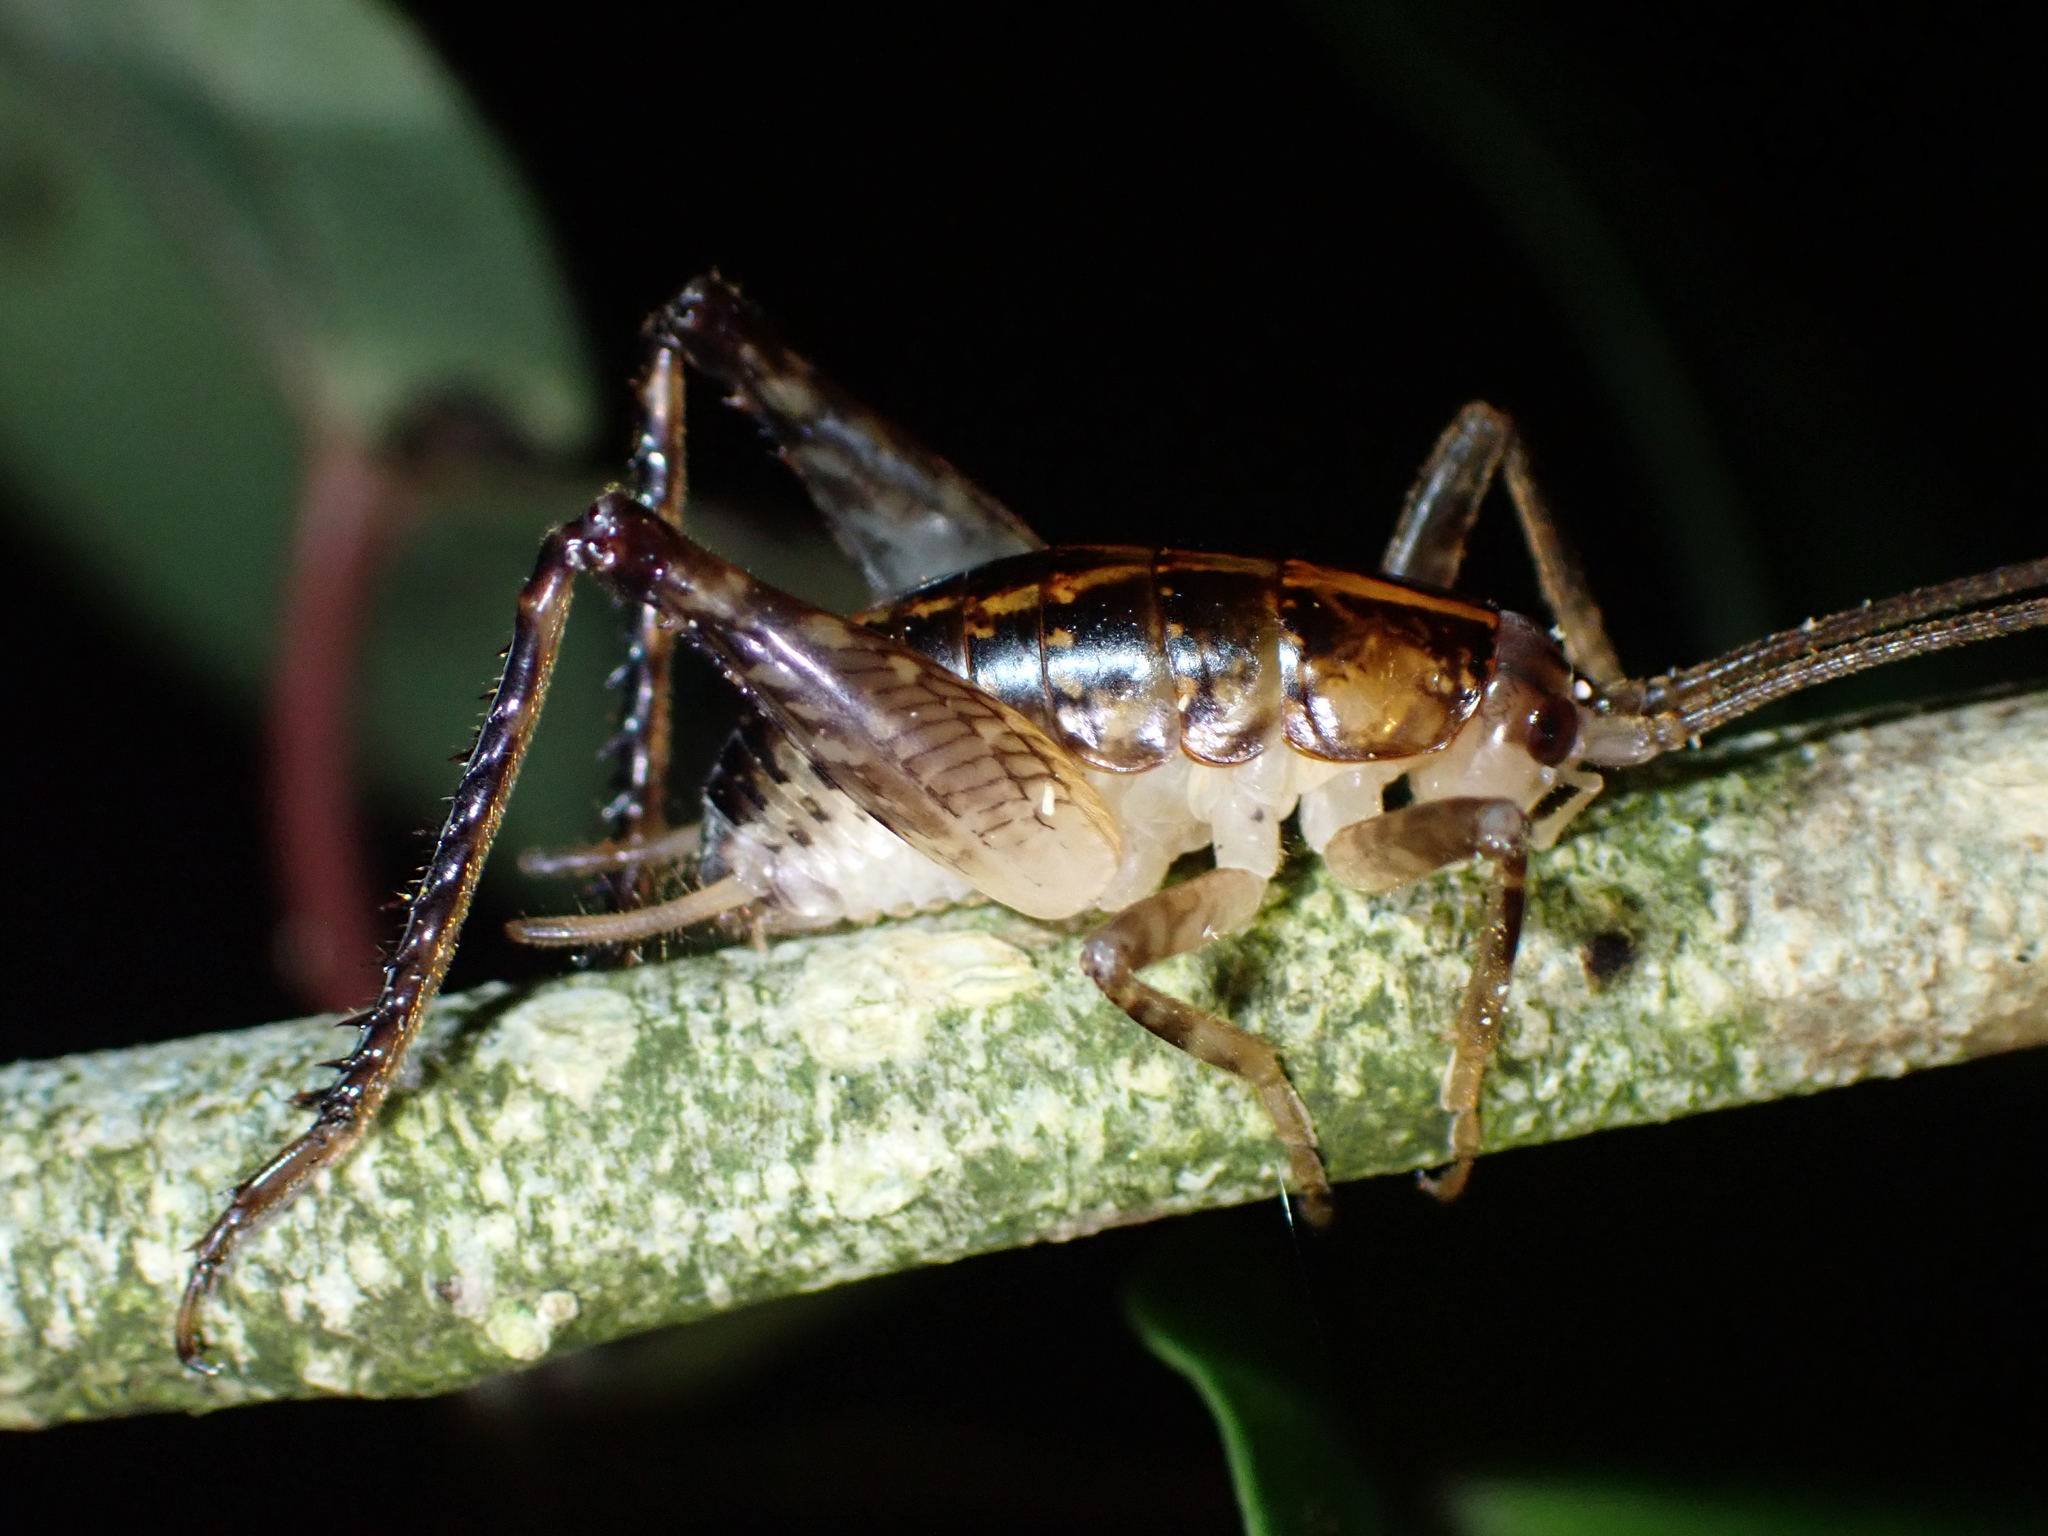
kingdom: Animalia
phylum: Arthropoda
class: Insecta
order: Orthoptera
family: Rhaphidophoridae
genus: Talitropsis
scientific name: Talitropsis sedilloti
